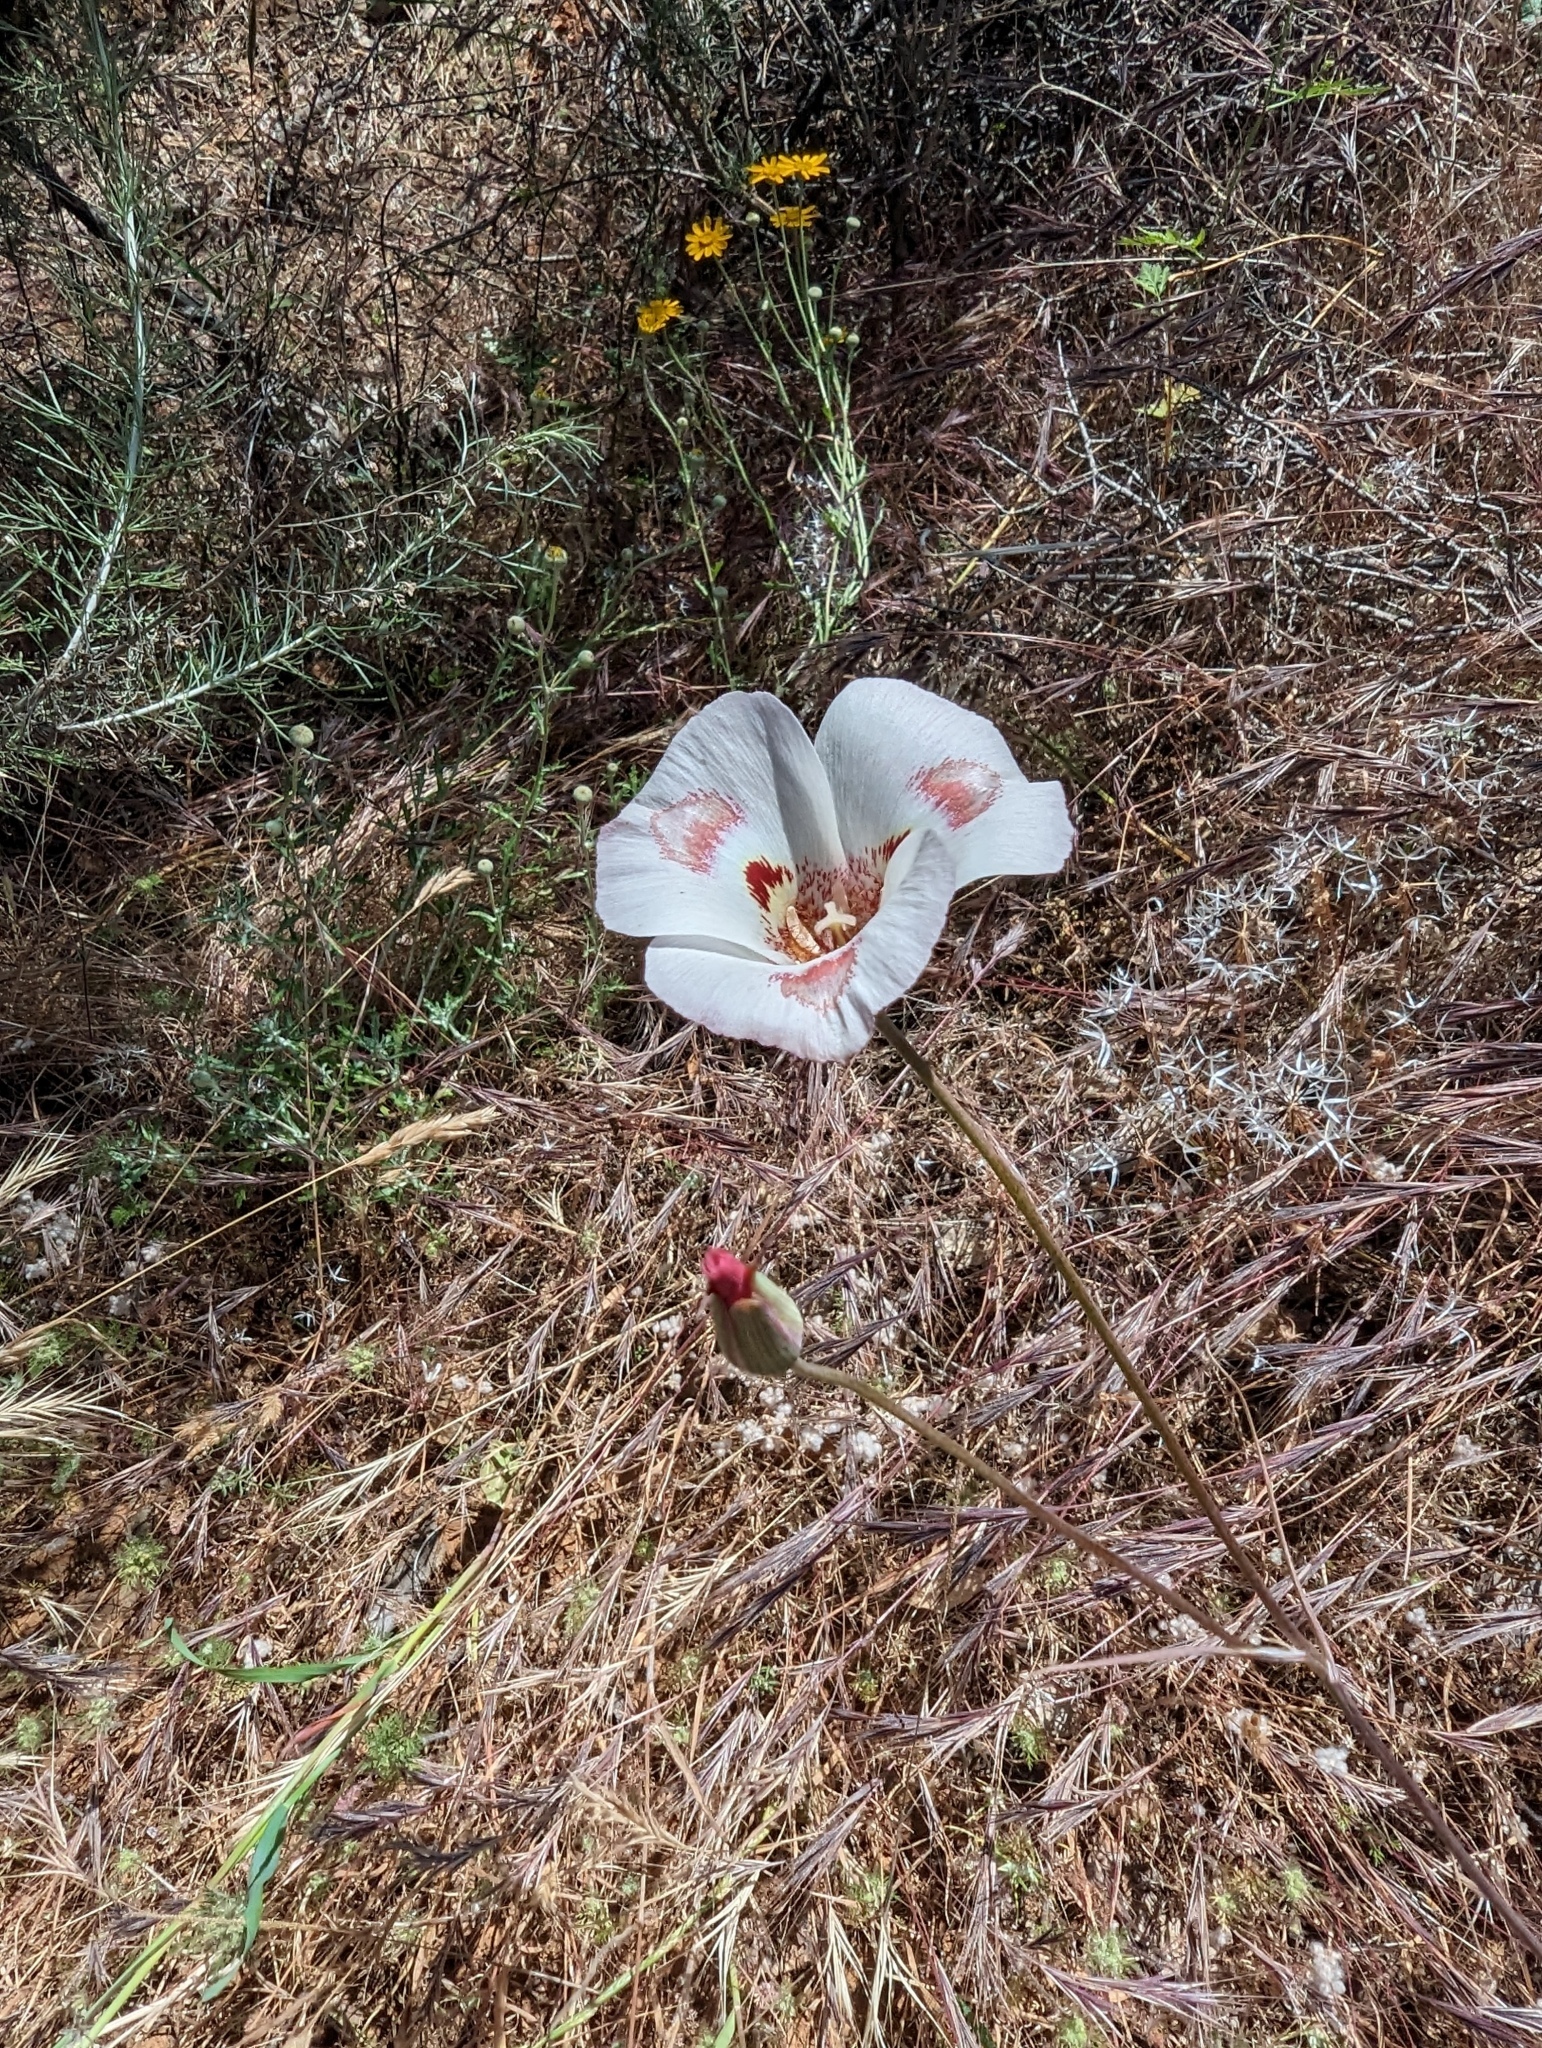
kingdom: Plantae
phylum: Tracheophyta
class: Liliopsida
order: Liliales
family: Liliaceae
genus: Calochortus
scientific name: Calochortus venustus
